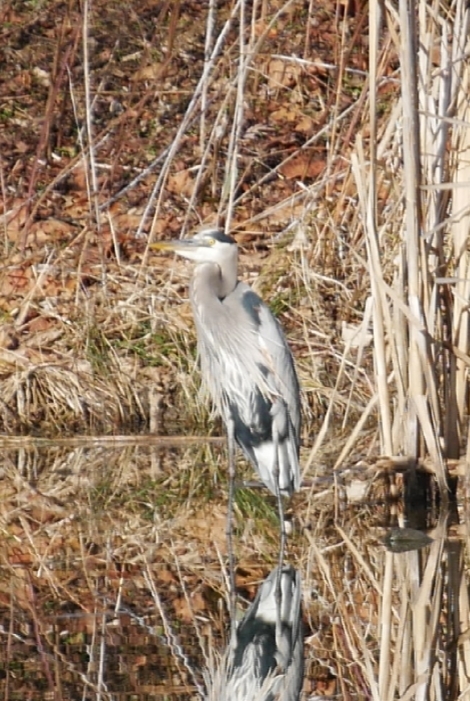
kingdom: Animalia
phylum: Chordata
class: Aves
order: Pelecaniformes
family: Ardeidae
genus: Ardea
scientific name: Ardea herodias
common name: Great blue heron
